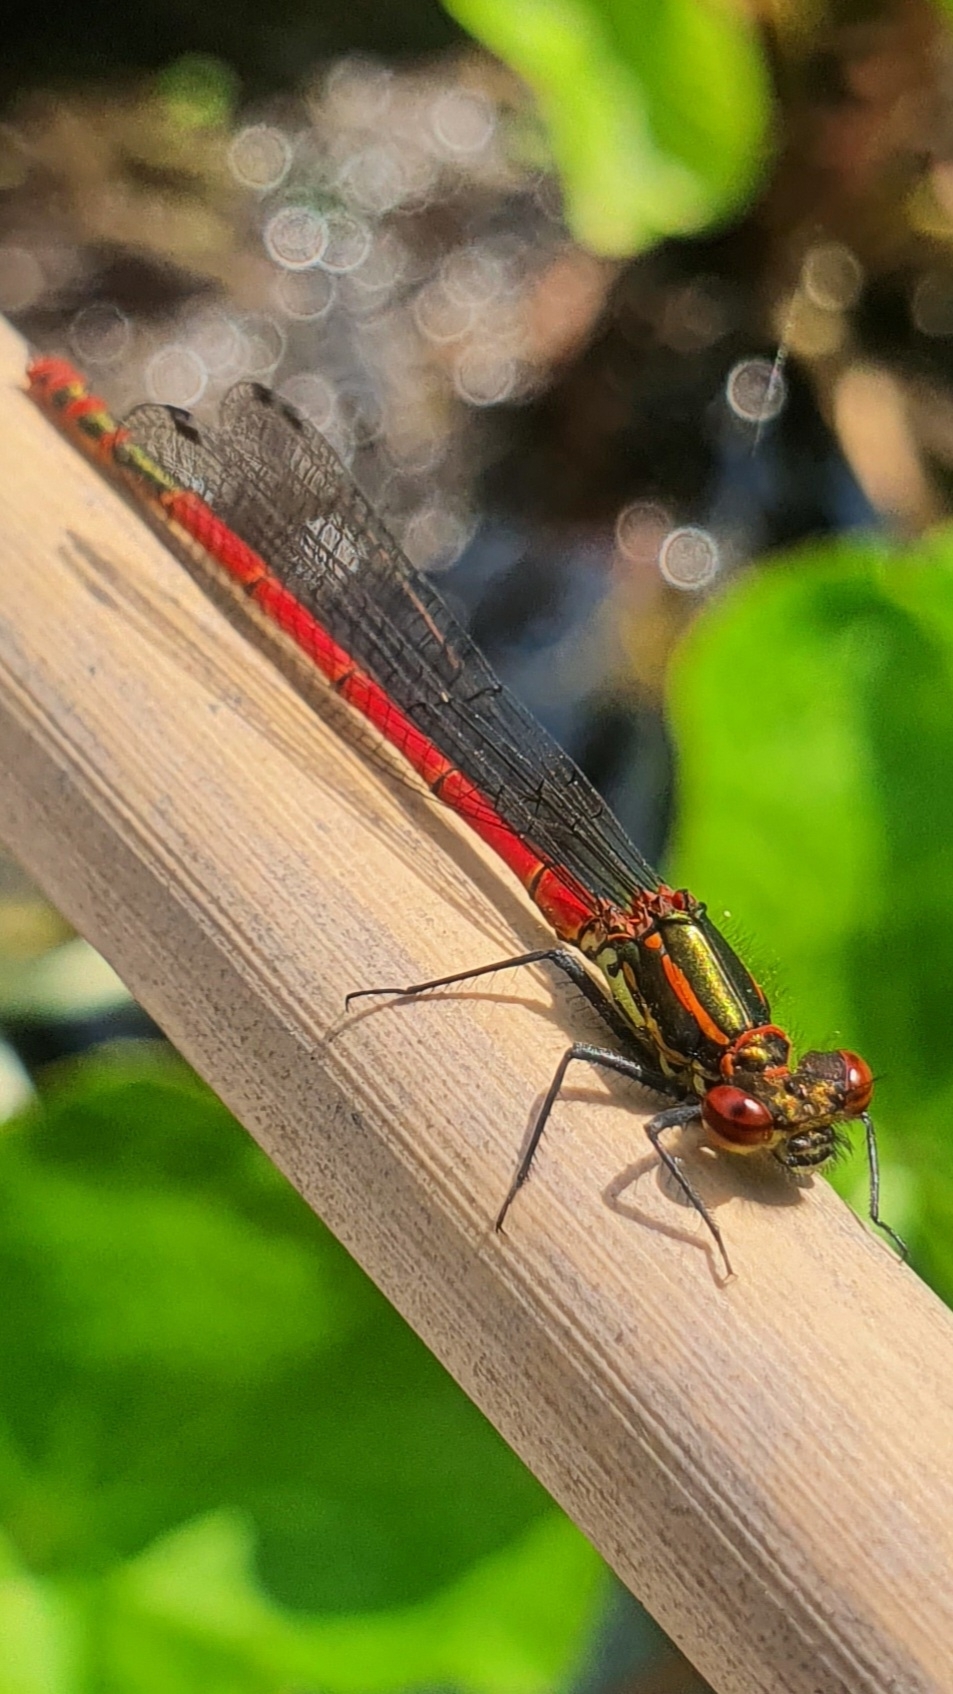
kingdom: Animalia
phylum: Arthropoda
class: Insecta
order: Odonata
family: Coenagrionidae
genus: Pyrrhosoma
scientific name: Pyrrhosoma nymphula
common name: Large red damsel
